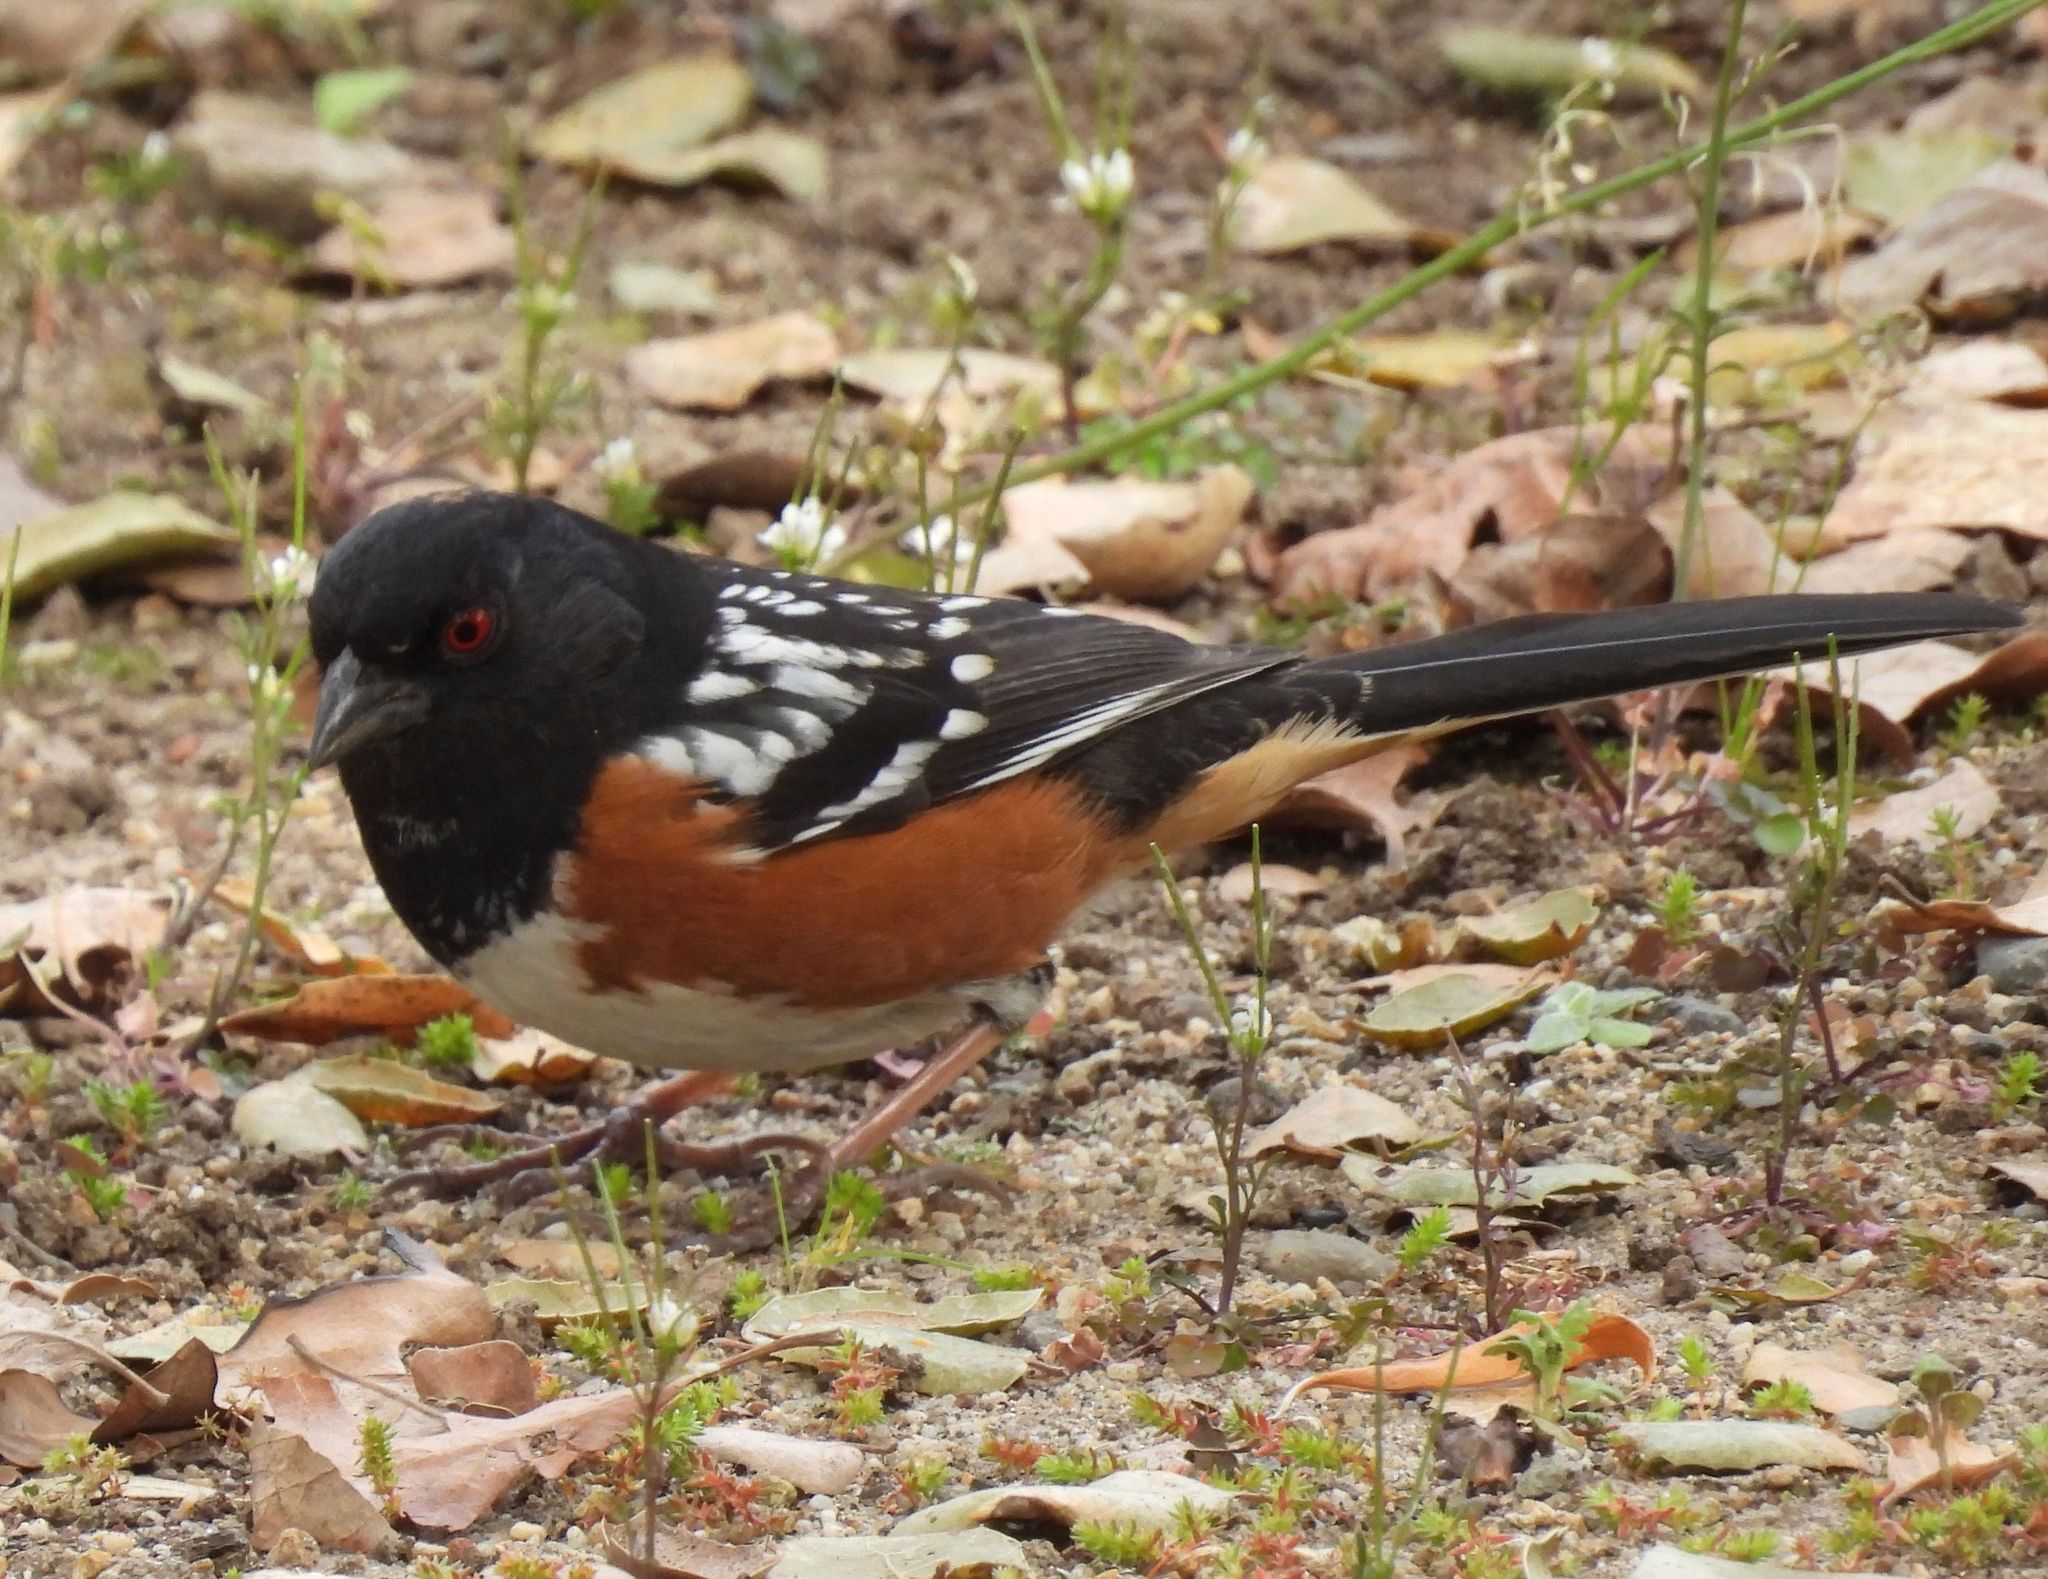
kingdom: Animalia
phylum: Chordata
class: Aves
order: Passeriformes
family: Passerellidae
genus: Pipilo
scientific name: Pipilo maculatus
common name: Spotted towhee
